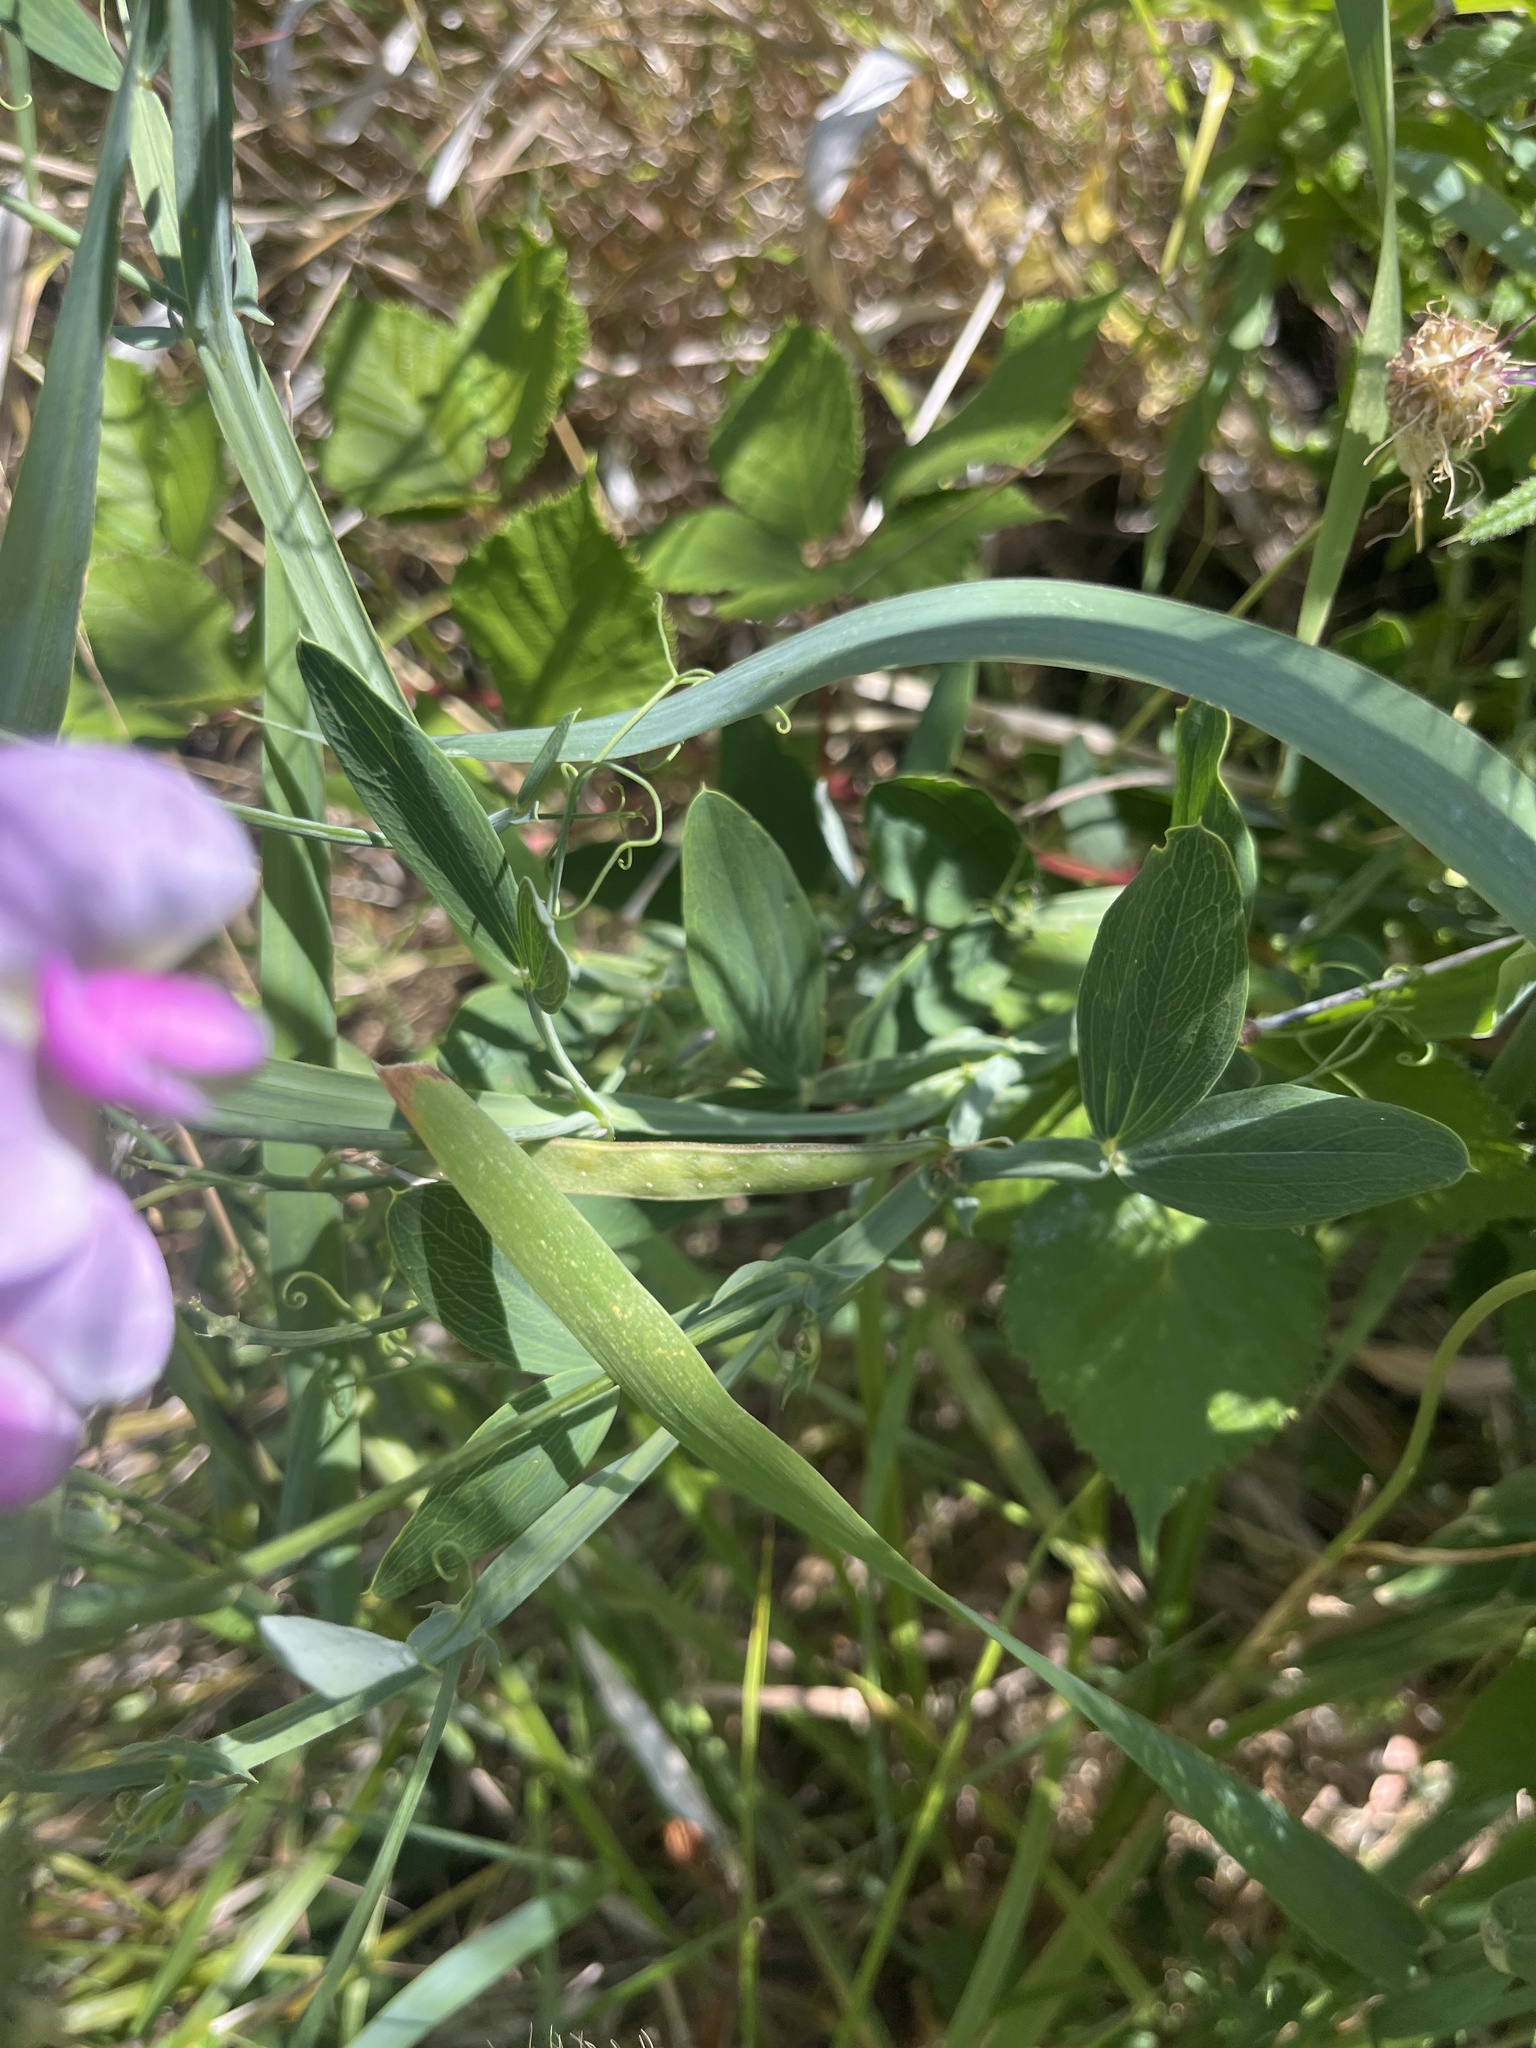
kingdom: Plantae
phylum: Tracheophyta
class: Magnoliopsida
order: Fabales
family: Fabaceae
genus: Lathyrus
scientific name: Lathyrus latifolius
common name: Perennial pea
